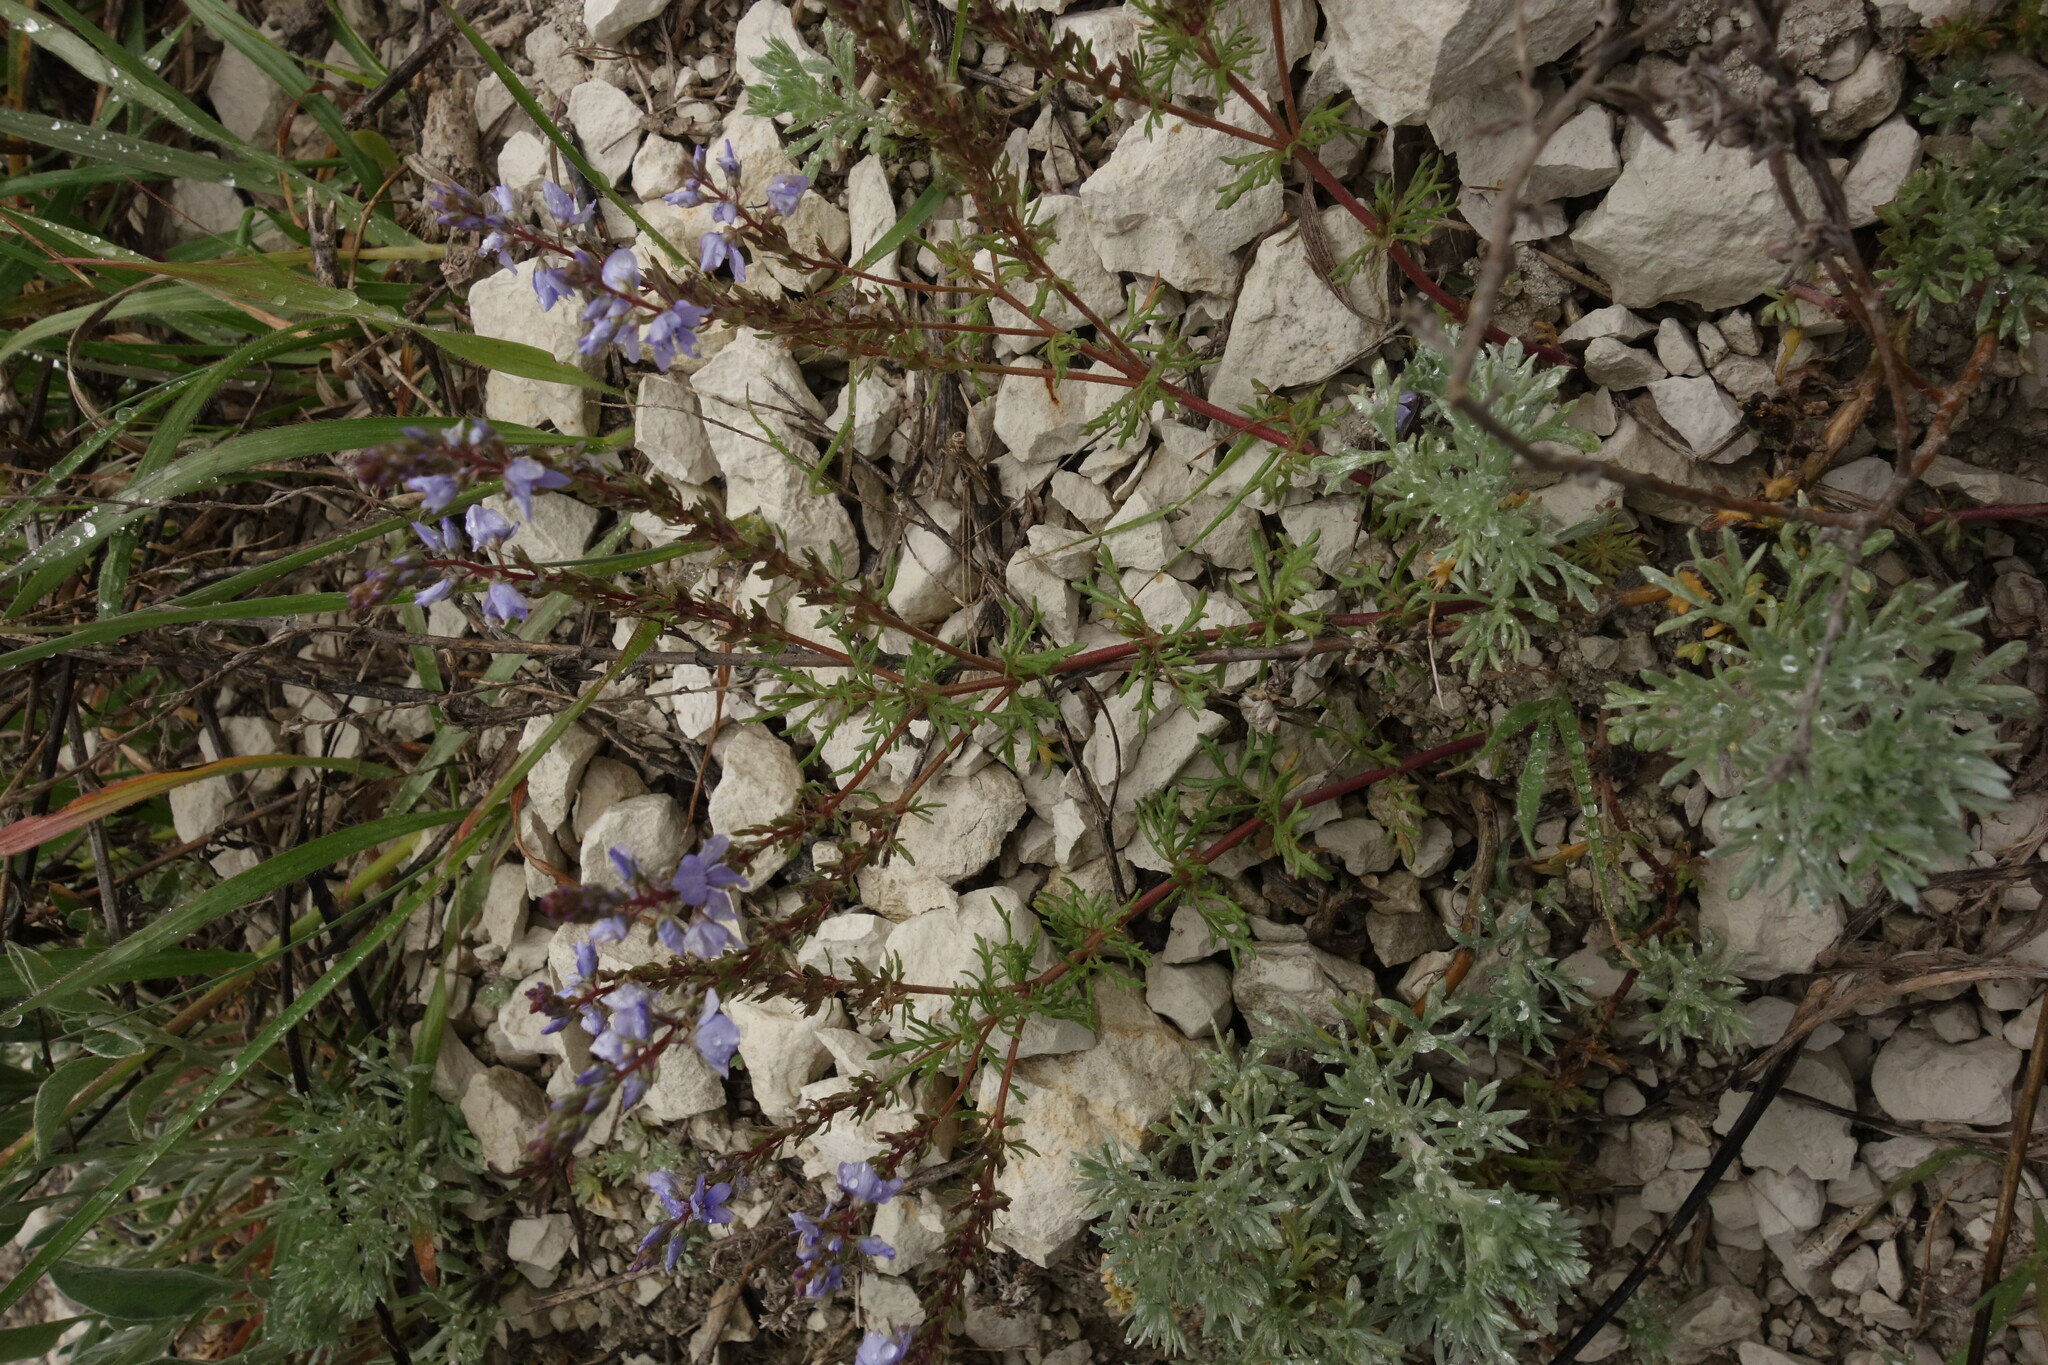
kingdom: Plantae
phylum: Tracheophyta
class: Magnoliopsida
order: Lamiales
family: Plantaginaceae
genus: Veronica
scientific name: Veronica capsellicarpa
